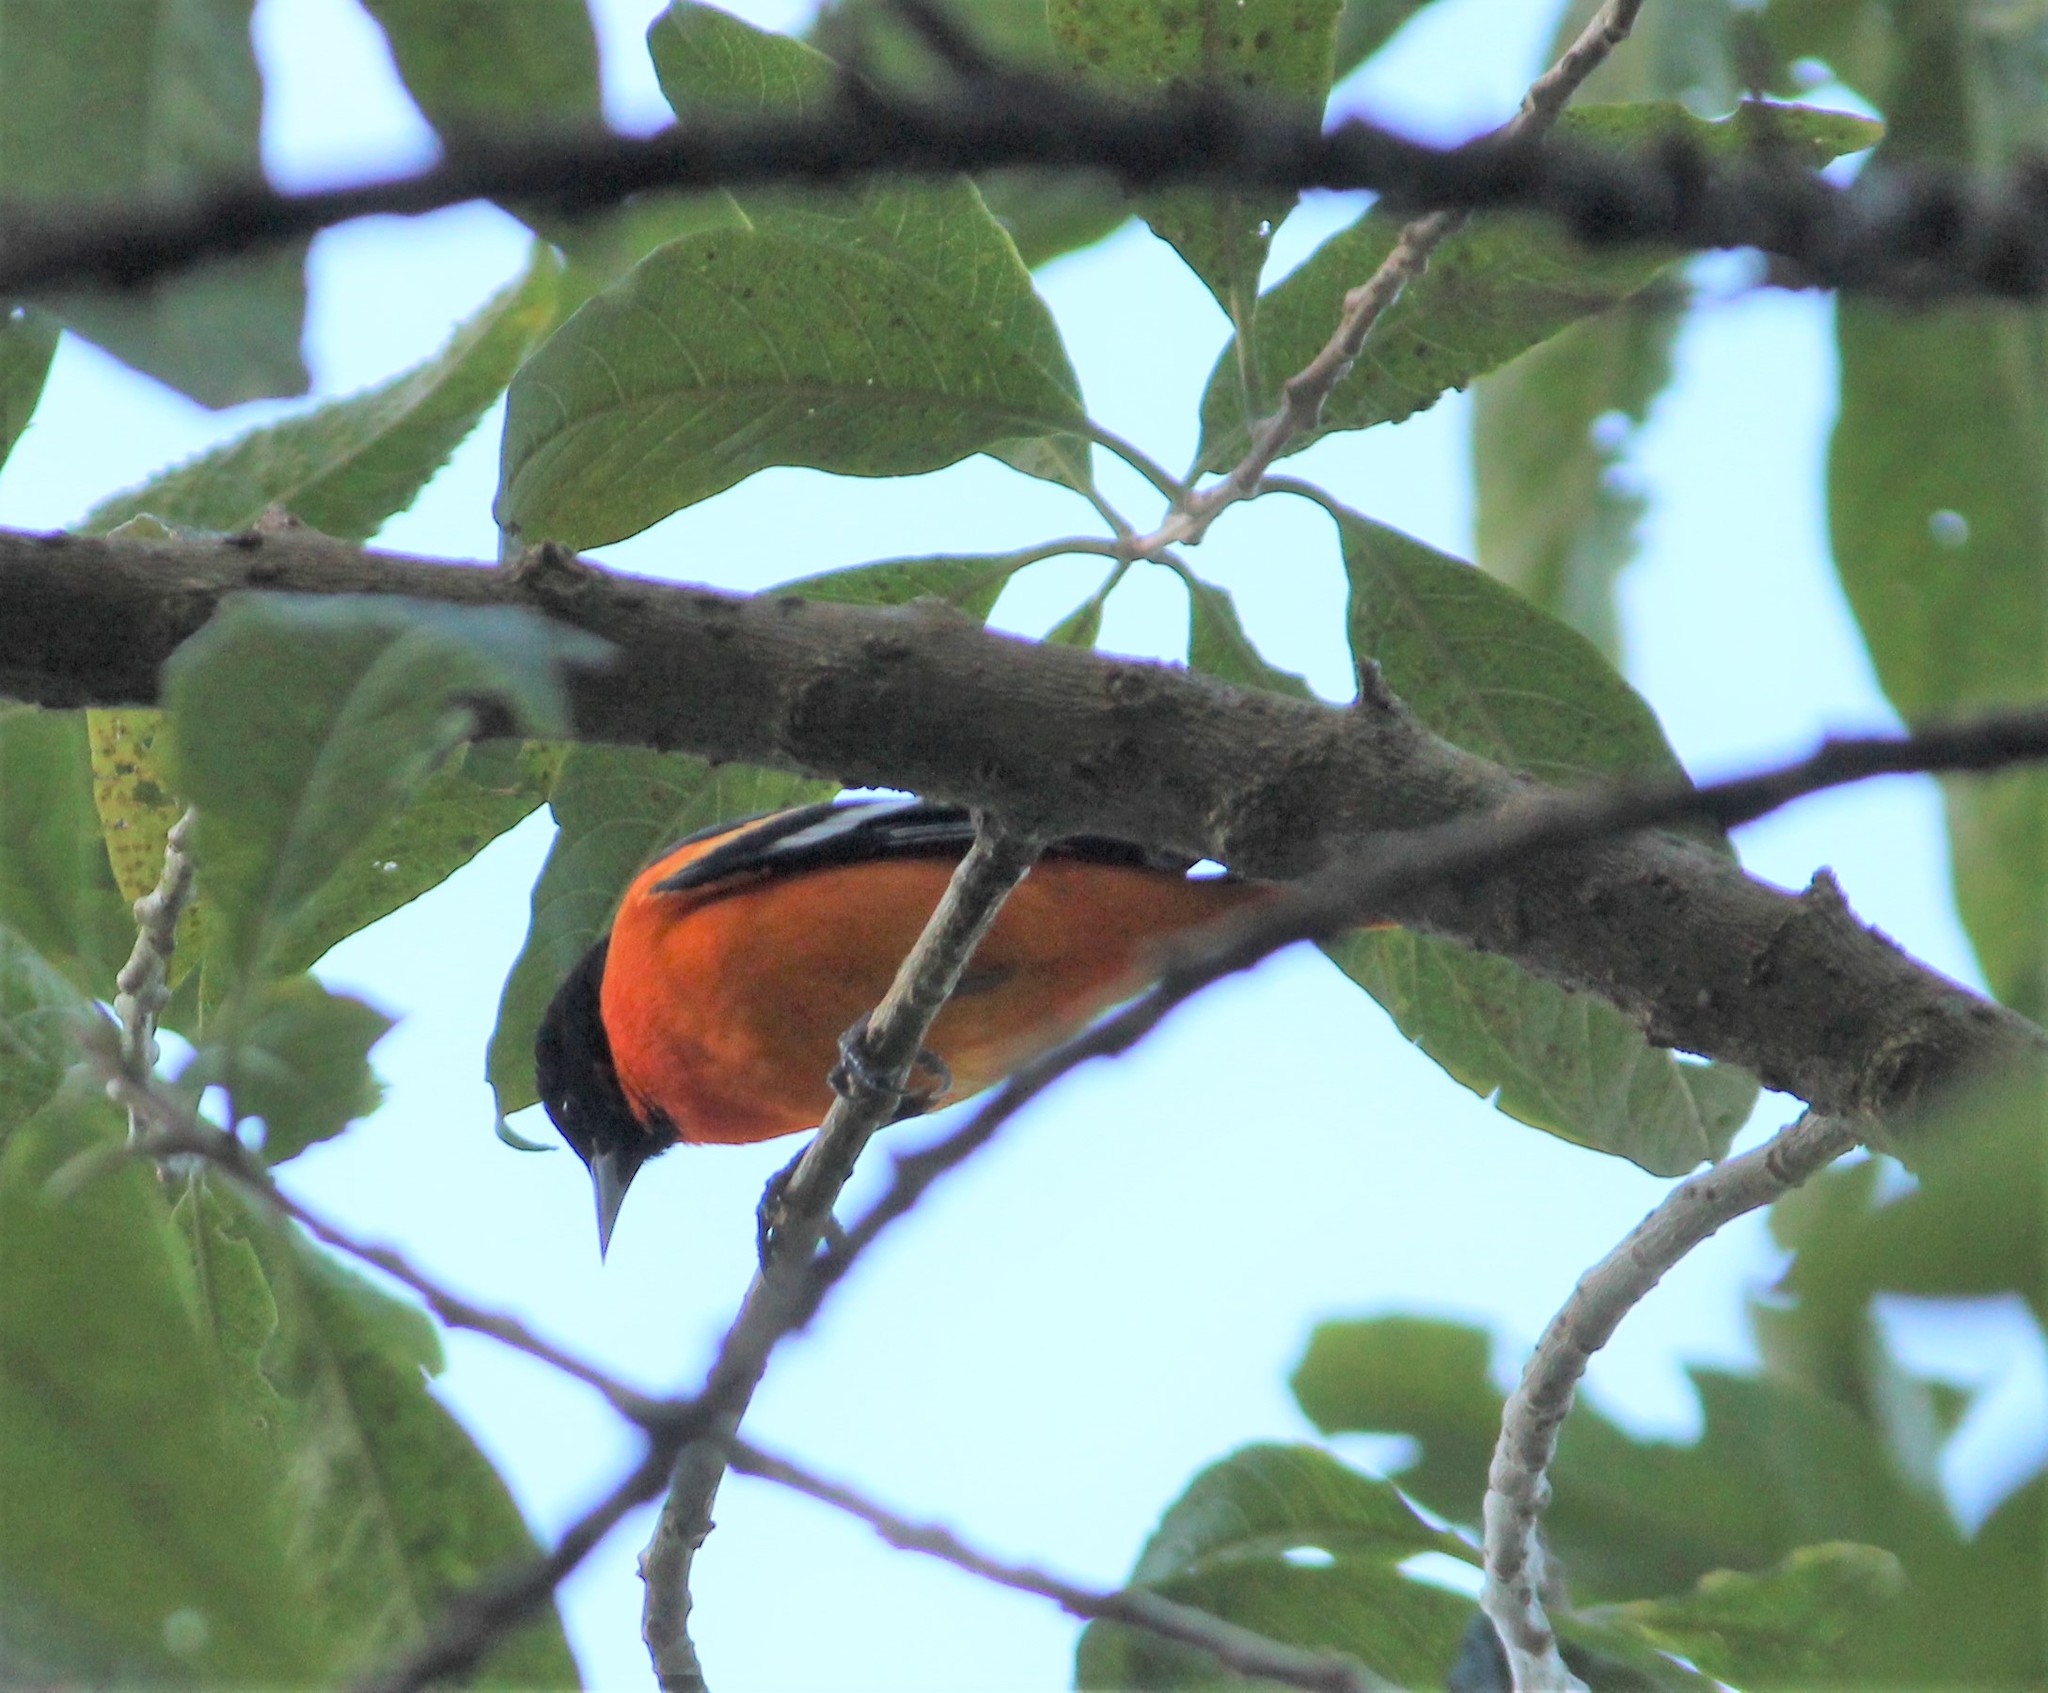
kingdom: Animalia
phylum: Chordata
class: Aves
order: Passeriformes
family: Icteridae
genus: Icterus
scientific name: Icterus galbula
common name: Baltimore oriole
